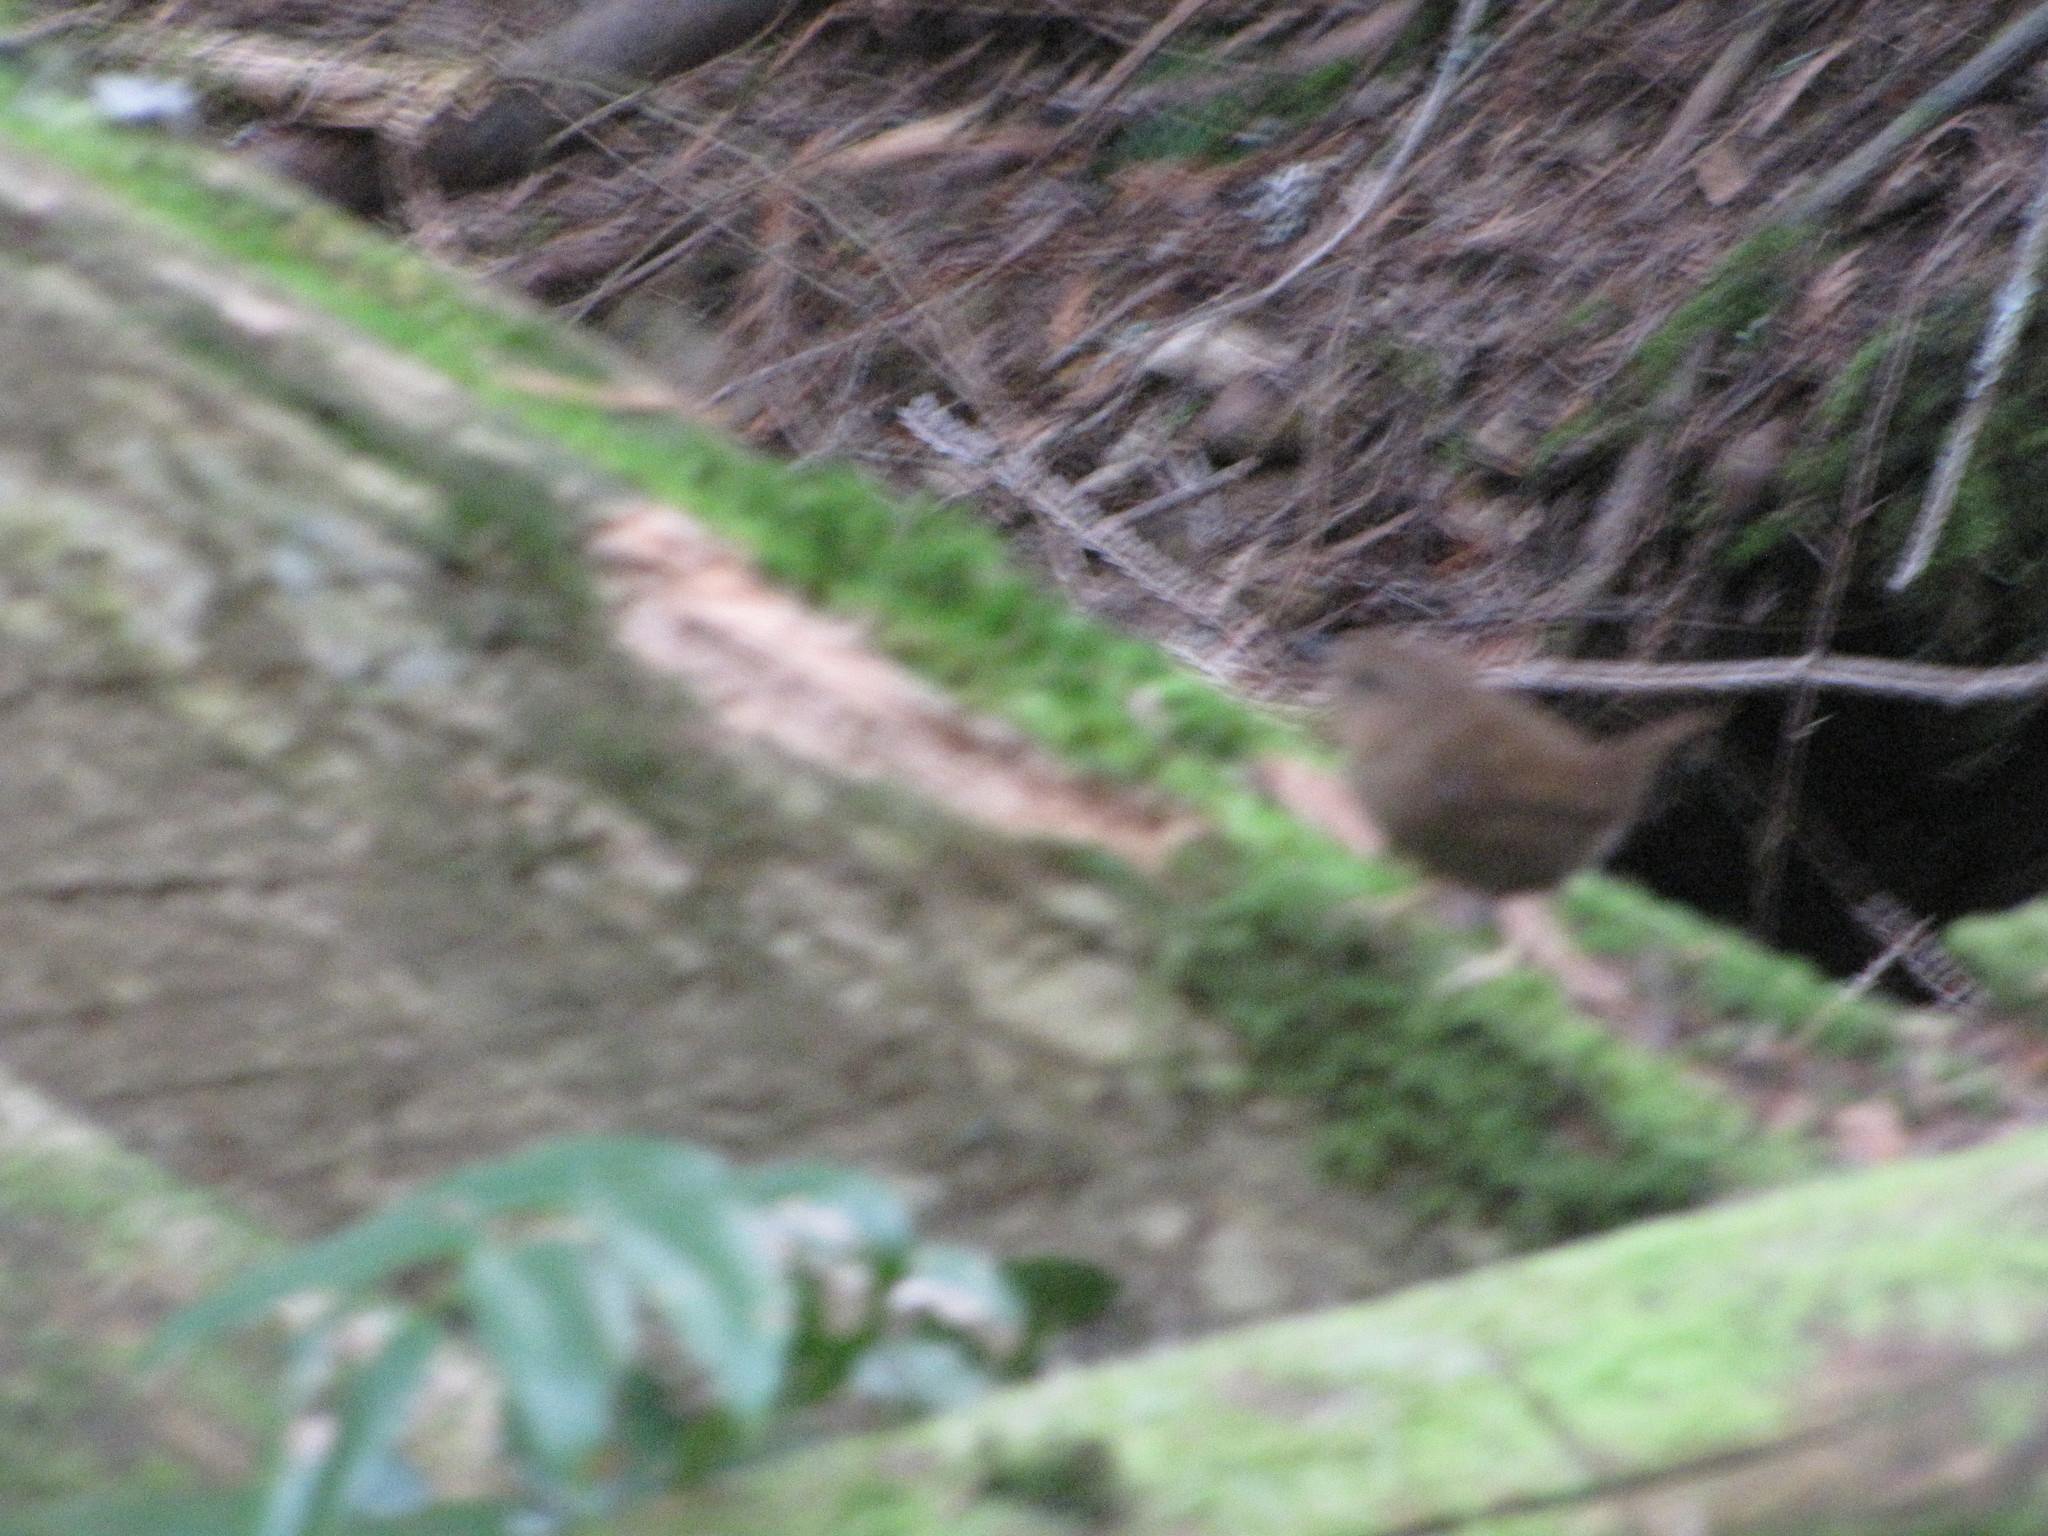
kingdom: Animalia
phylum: Chordata
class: Aves
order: Passeriformes
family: Troglodytidae
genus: Troglodytes
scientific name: Troglodytes pacificus
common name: Pacific wren
